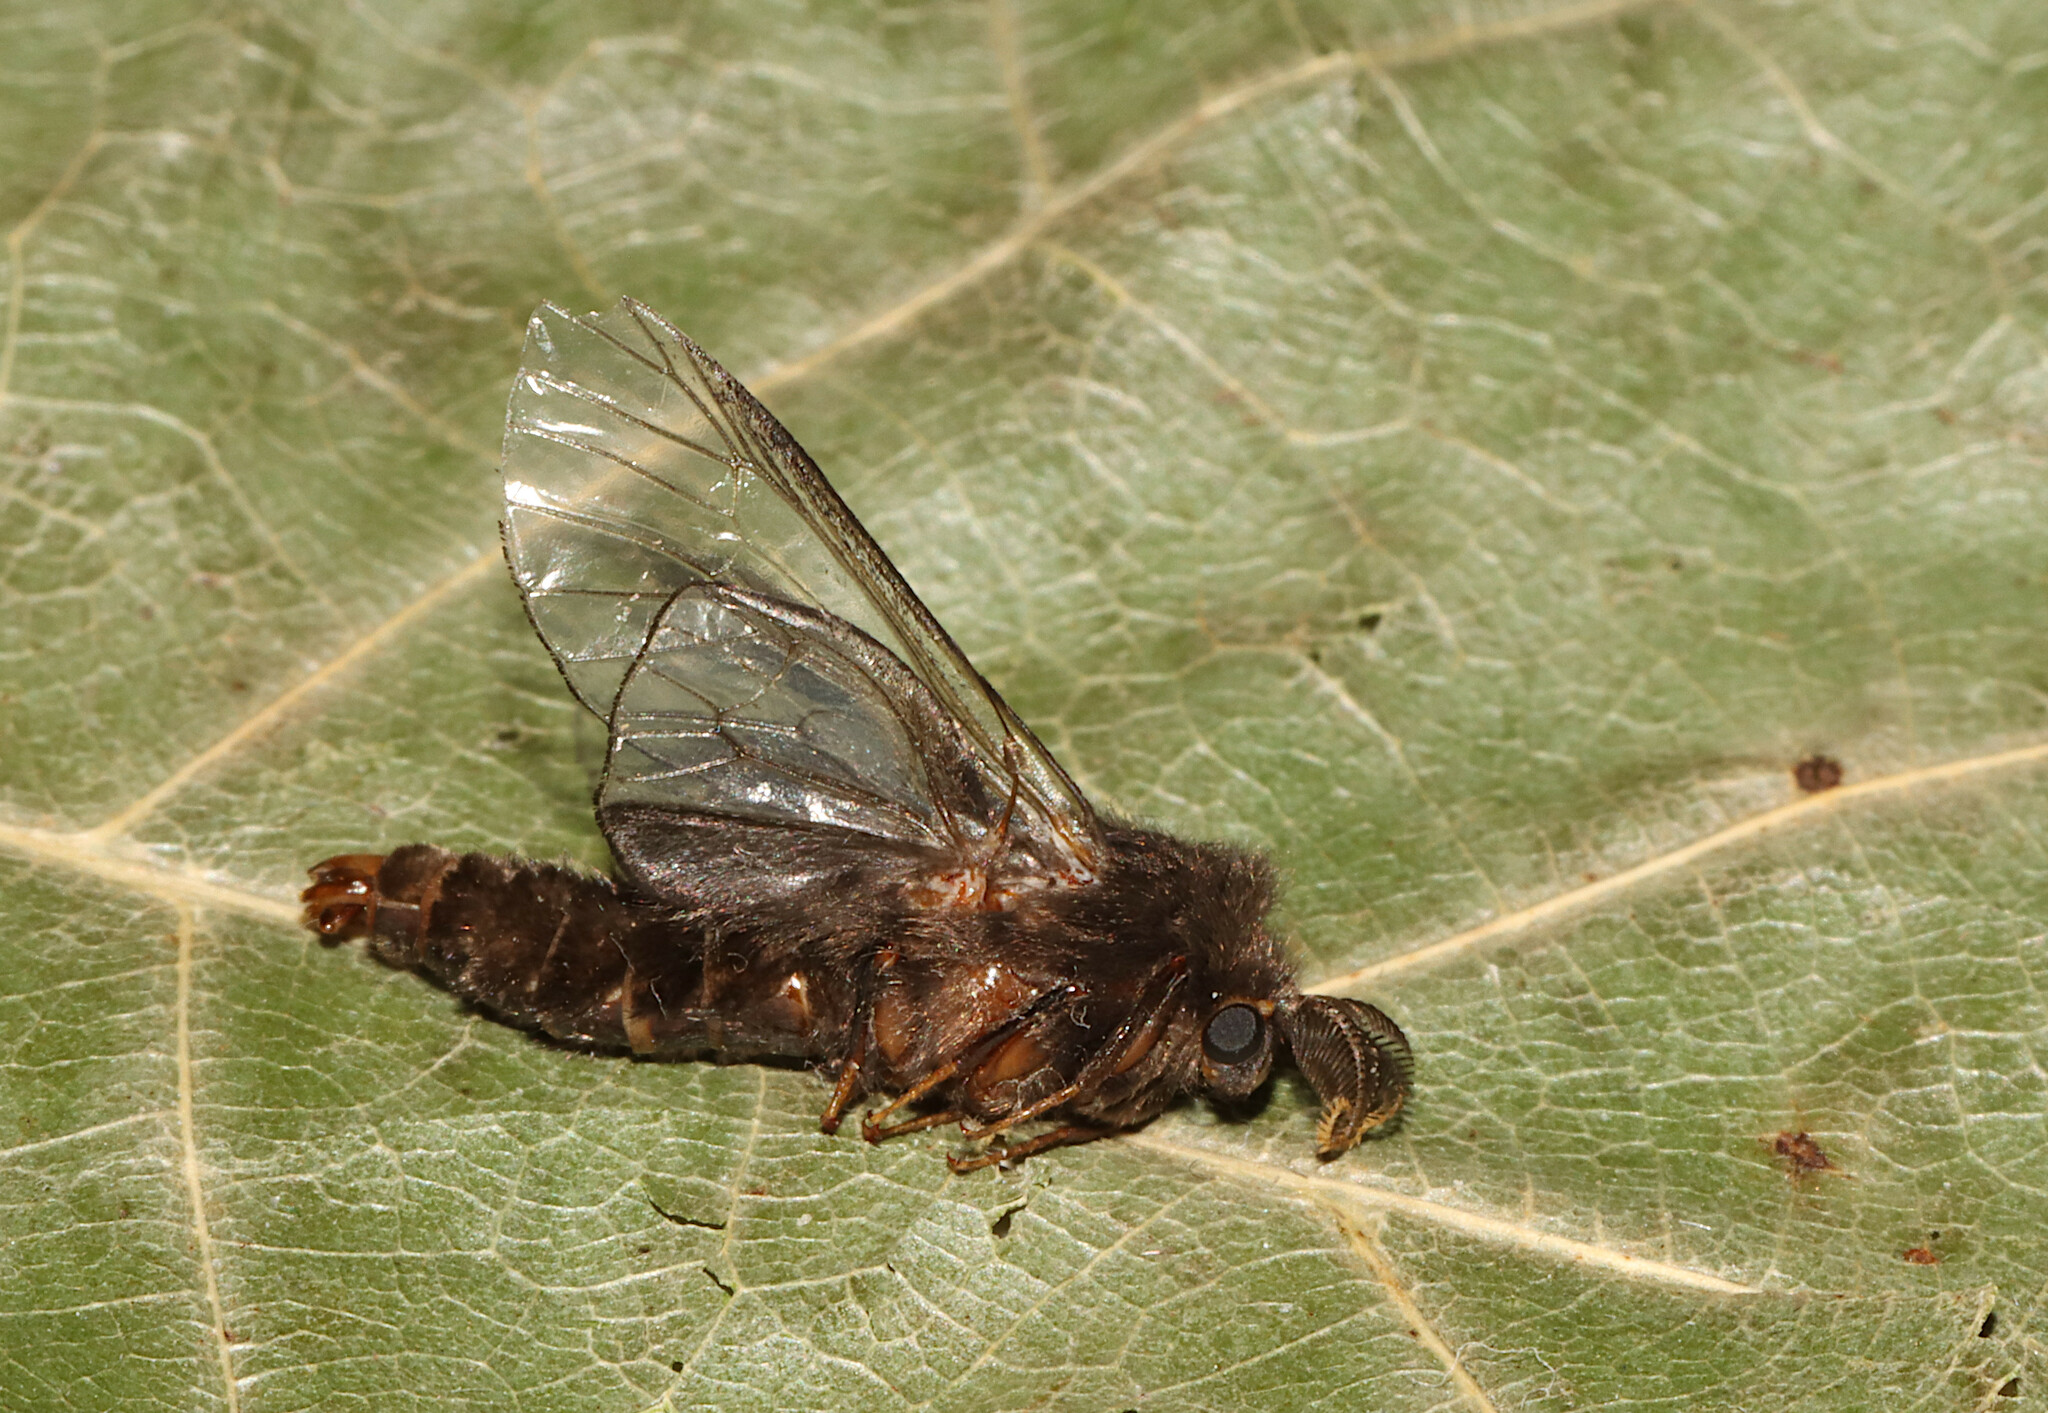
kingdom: Animalia
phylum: Arthropoda
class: Insecta
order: Lepidoptera
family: Psychidae
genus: Thyridopteryx
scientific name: Thyridopteryx ephemeraeformis
